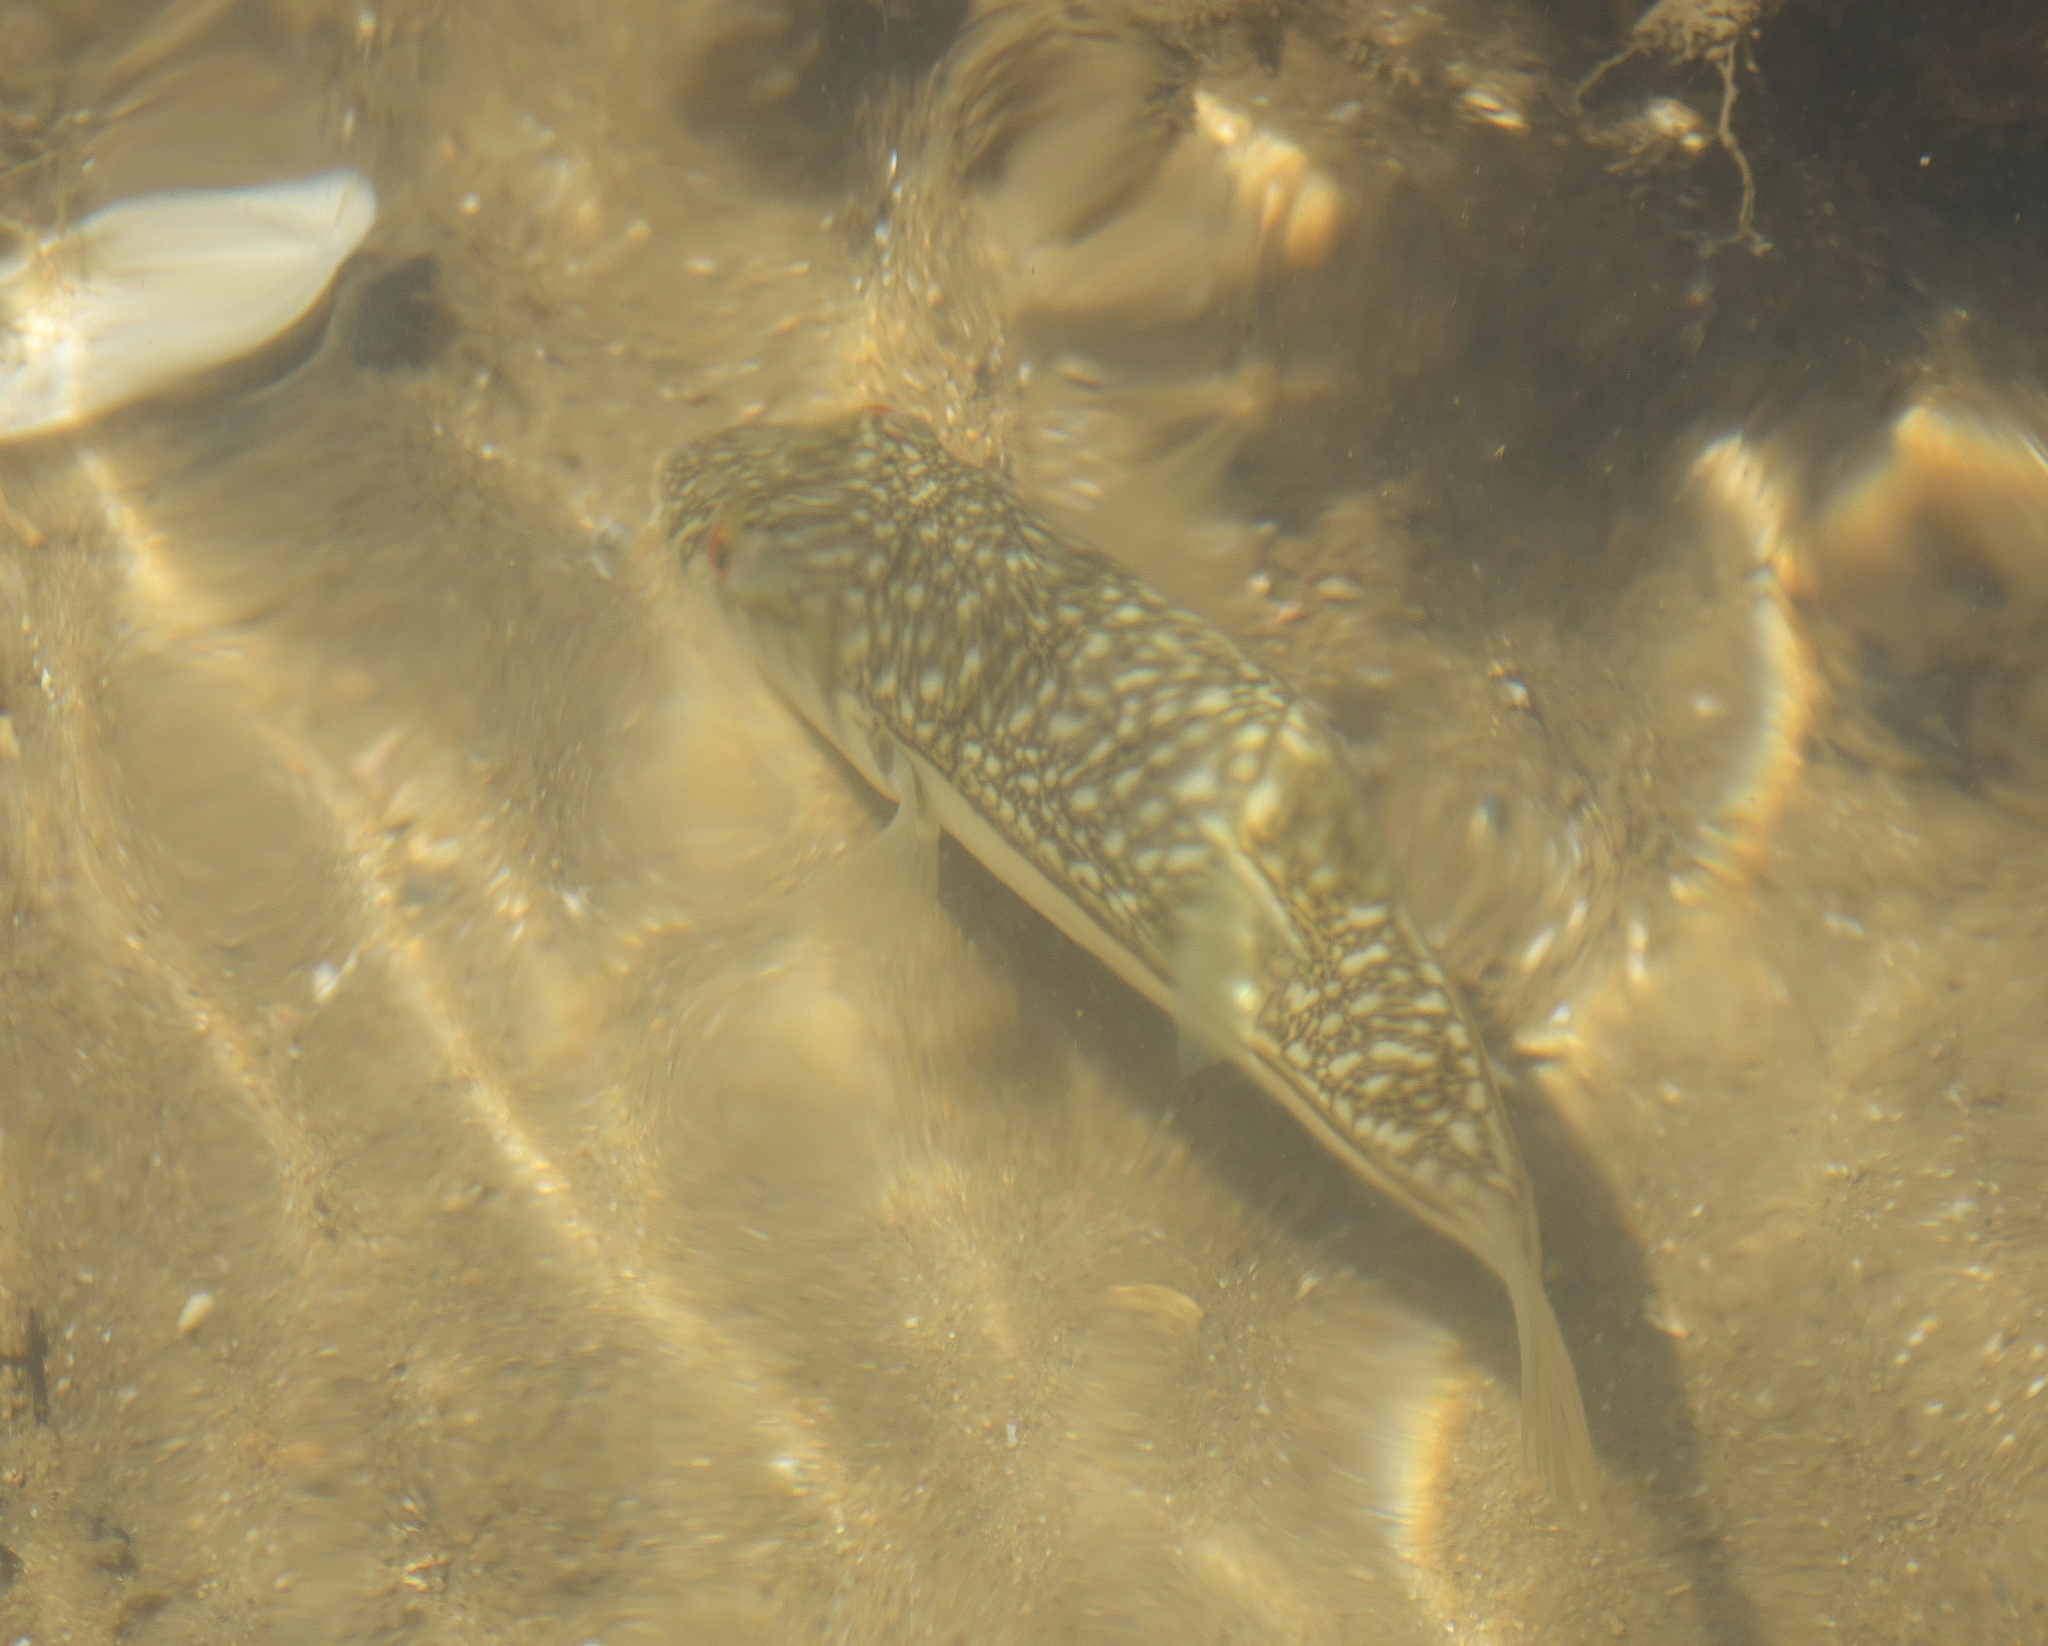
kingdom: Animalia
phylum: Chordata
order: Tetraodontiformes
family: Tetraodontidae
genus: Torquigener
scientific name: Torquigener pleurogramma
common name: Banded toadfish
